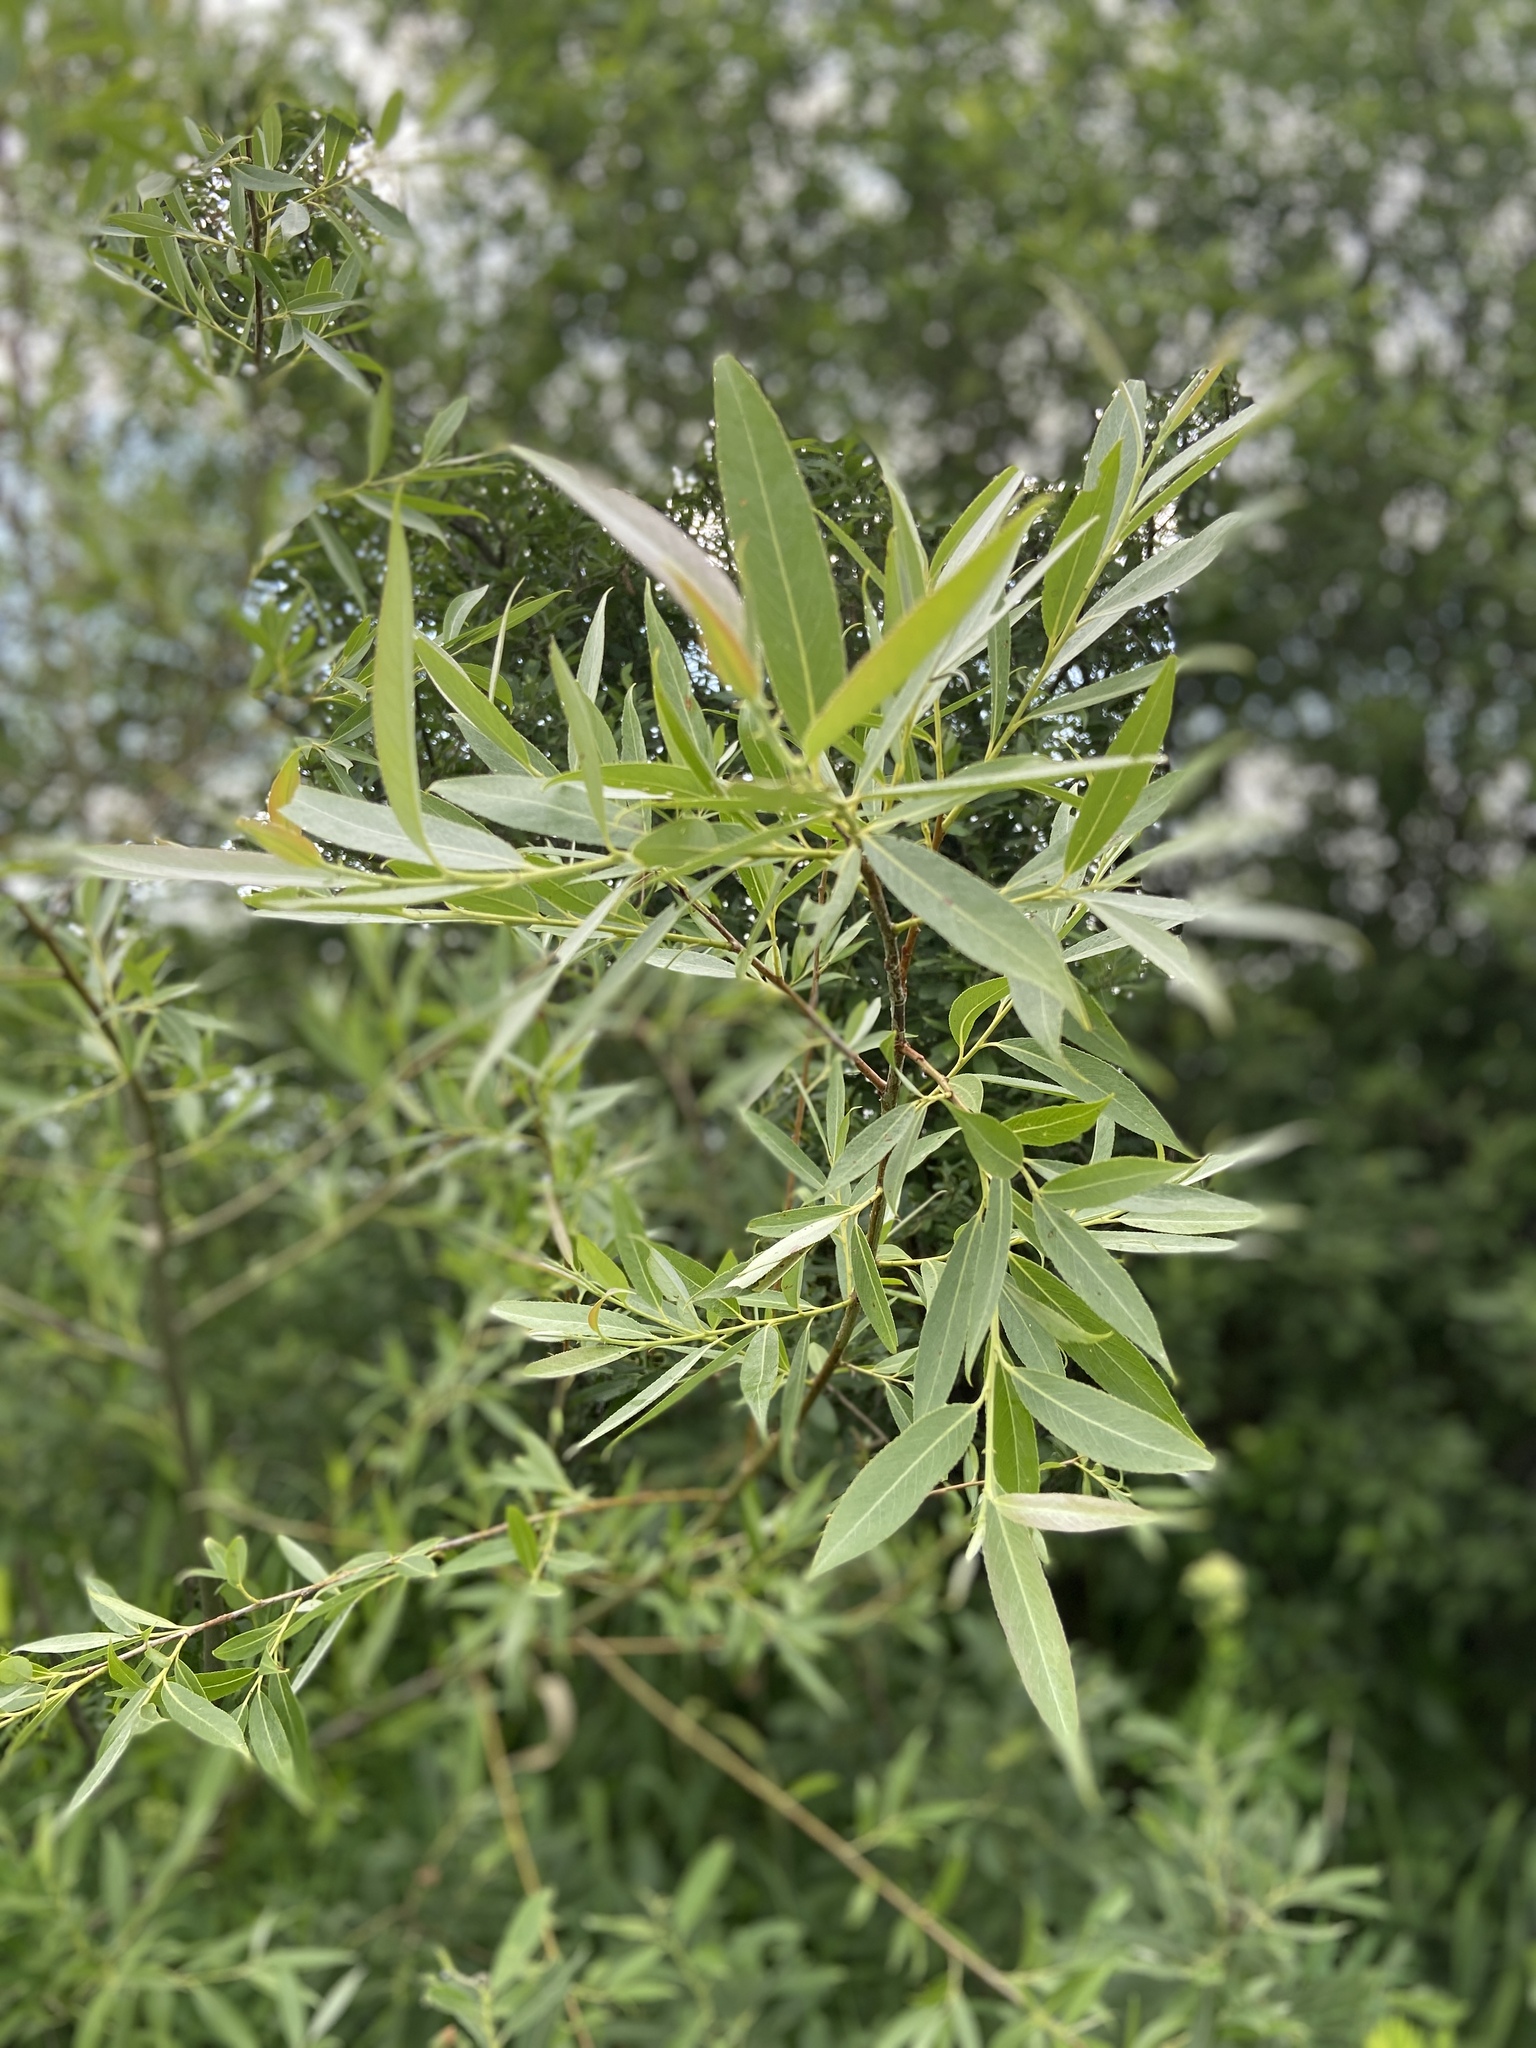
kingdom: Plantae
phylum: Tracheophyta
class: Magnoliopsida
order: Malpighiales
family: Salicaceae
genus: Salix
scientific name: Salix fragilis
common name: Crack willow
